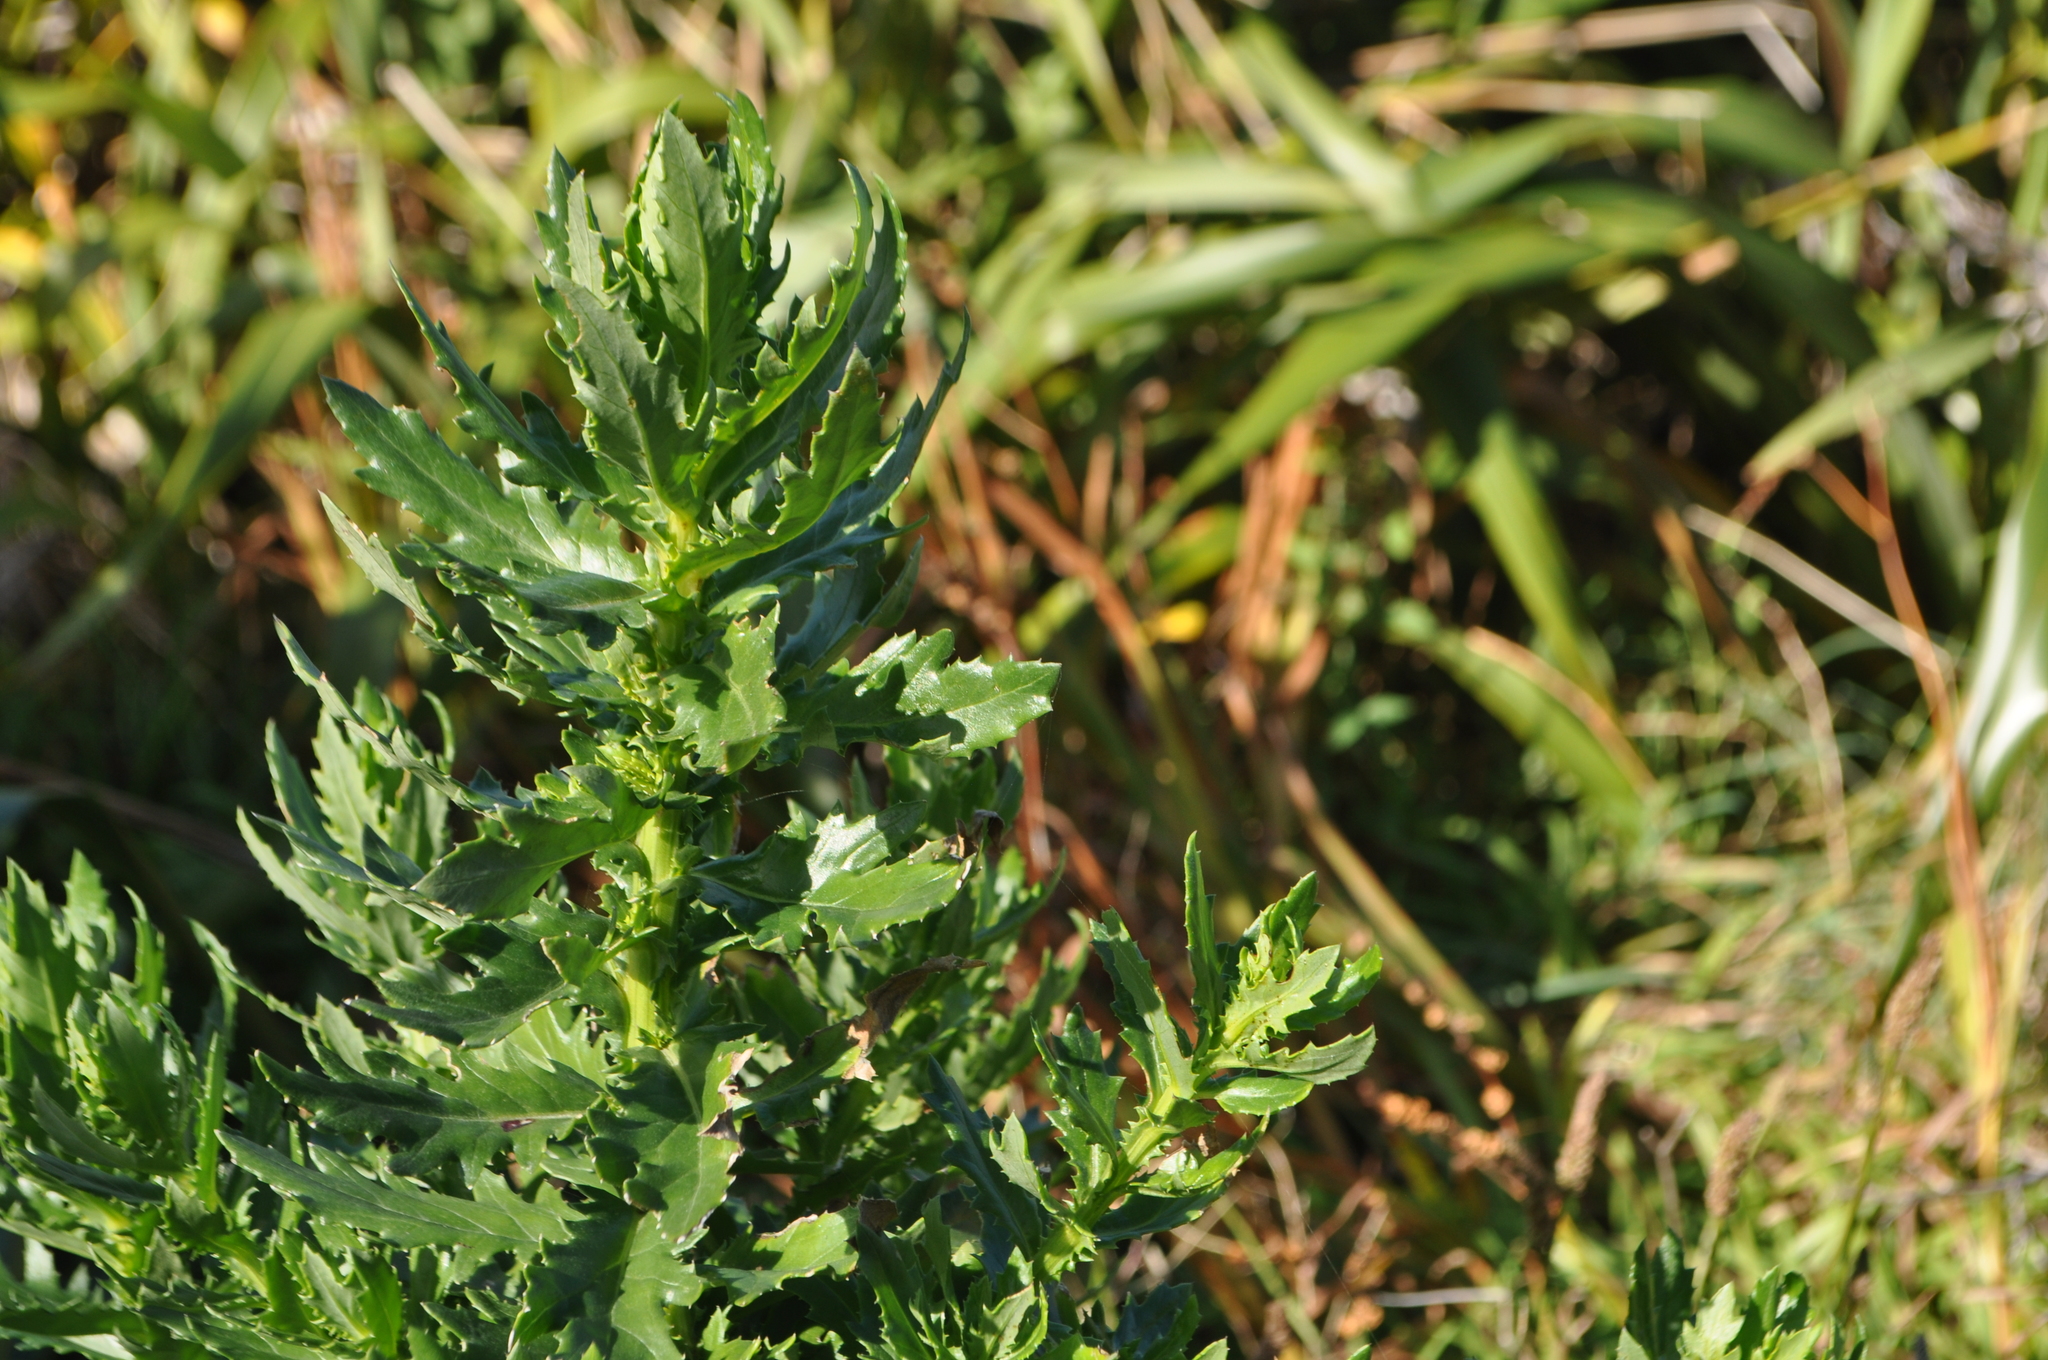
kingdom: Plantae
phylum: Tracheophyta
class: Magnoliopsida
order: Asterales
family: Asteraceae
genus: Senecio
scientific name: Senecio glastifolius
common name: Woad-leaved ragwort
